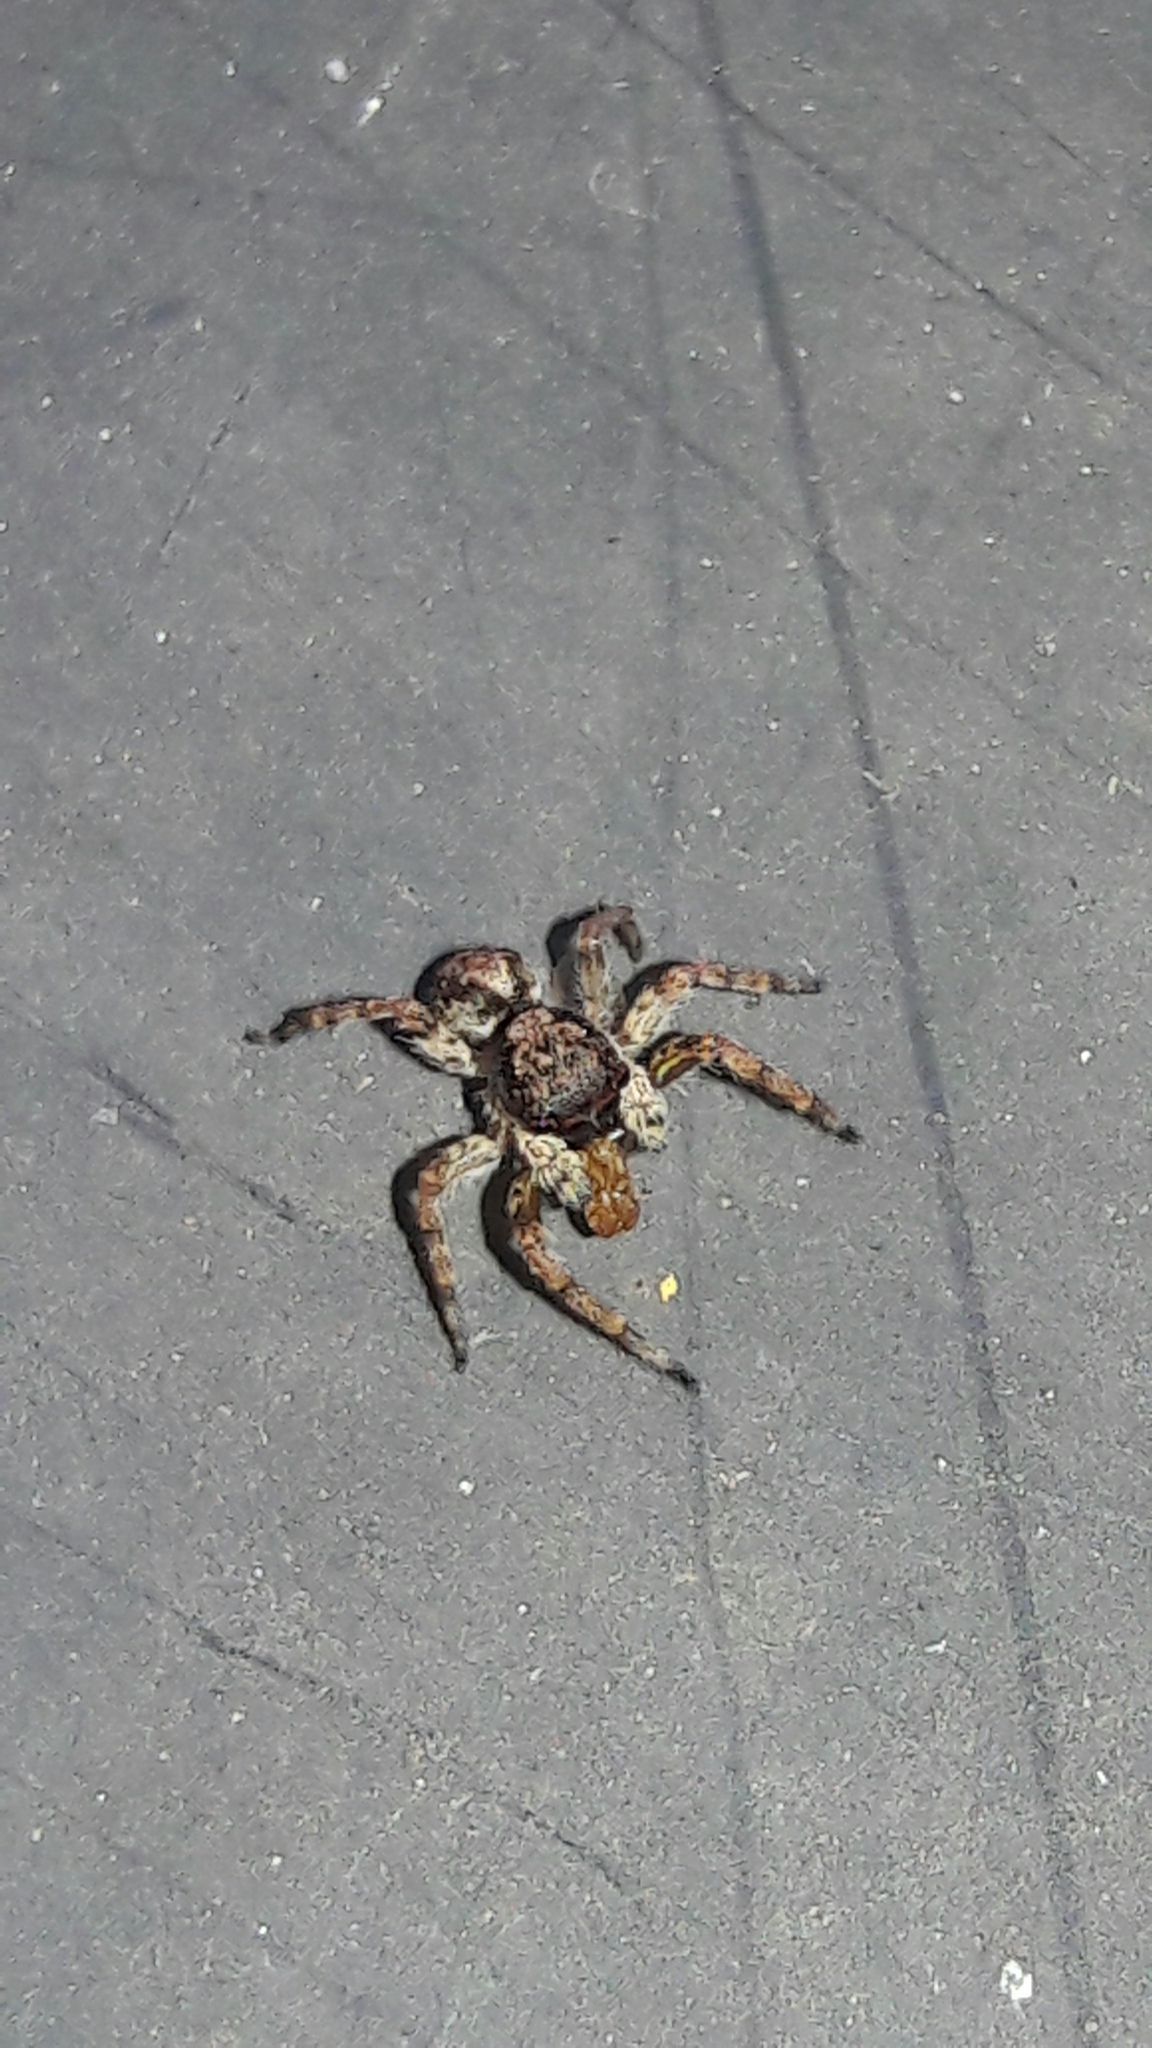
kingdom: Animalia
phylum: Arthropoda
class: Arachnida
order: Araneae
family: Salticidae
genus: Marma
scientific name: Marma nigritarsis
